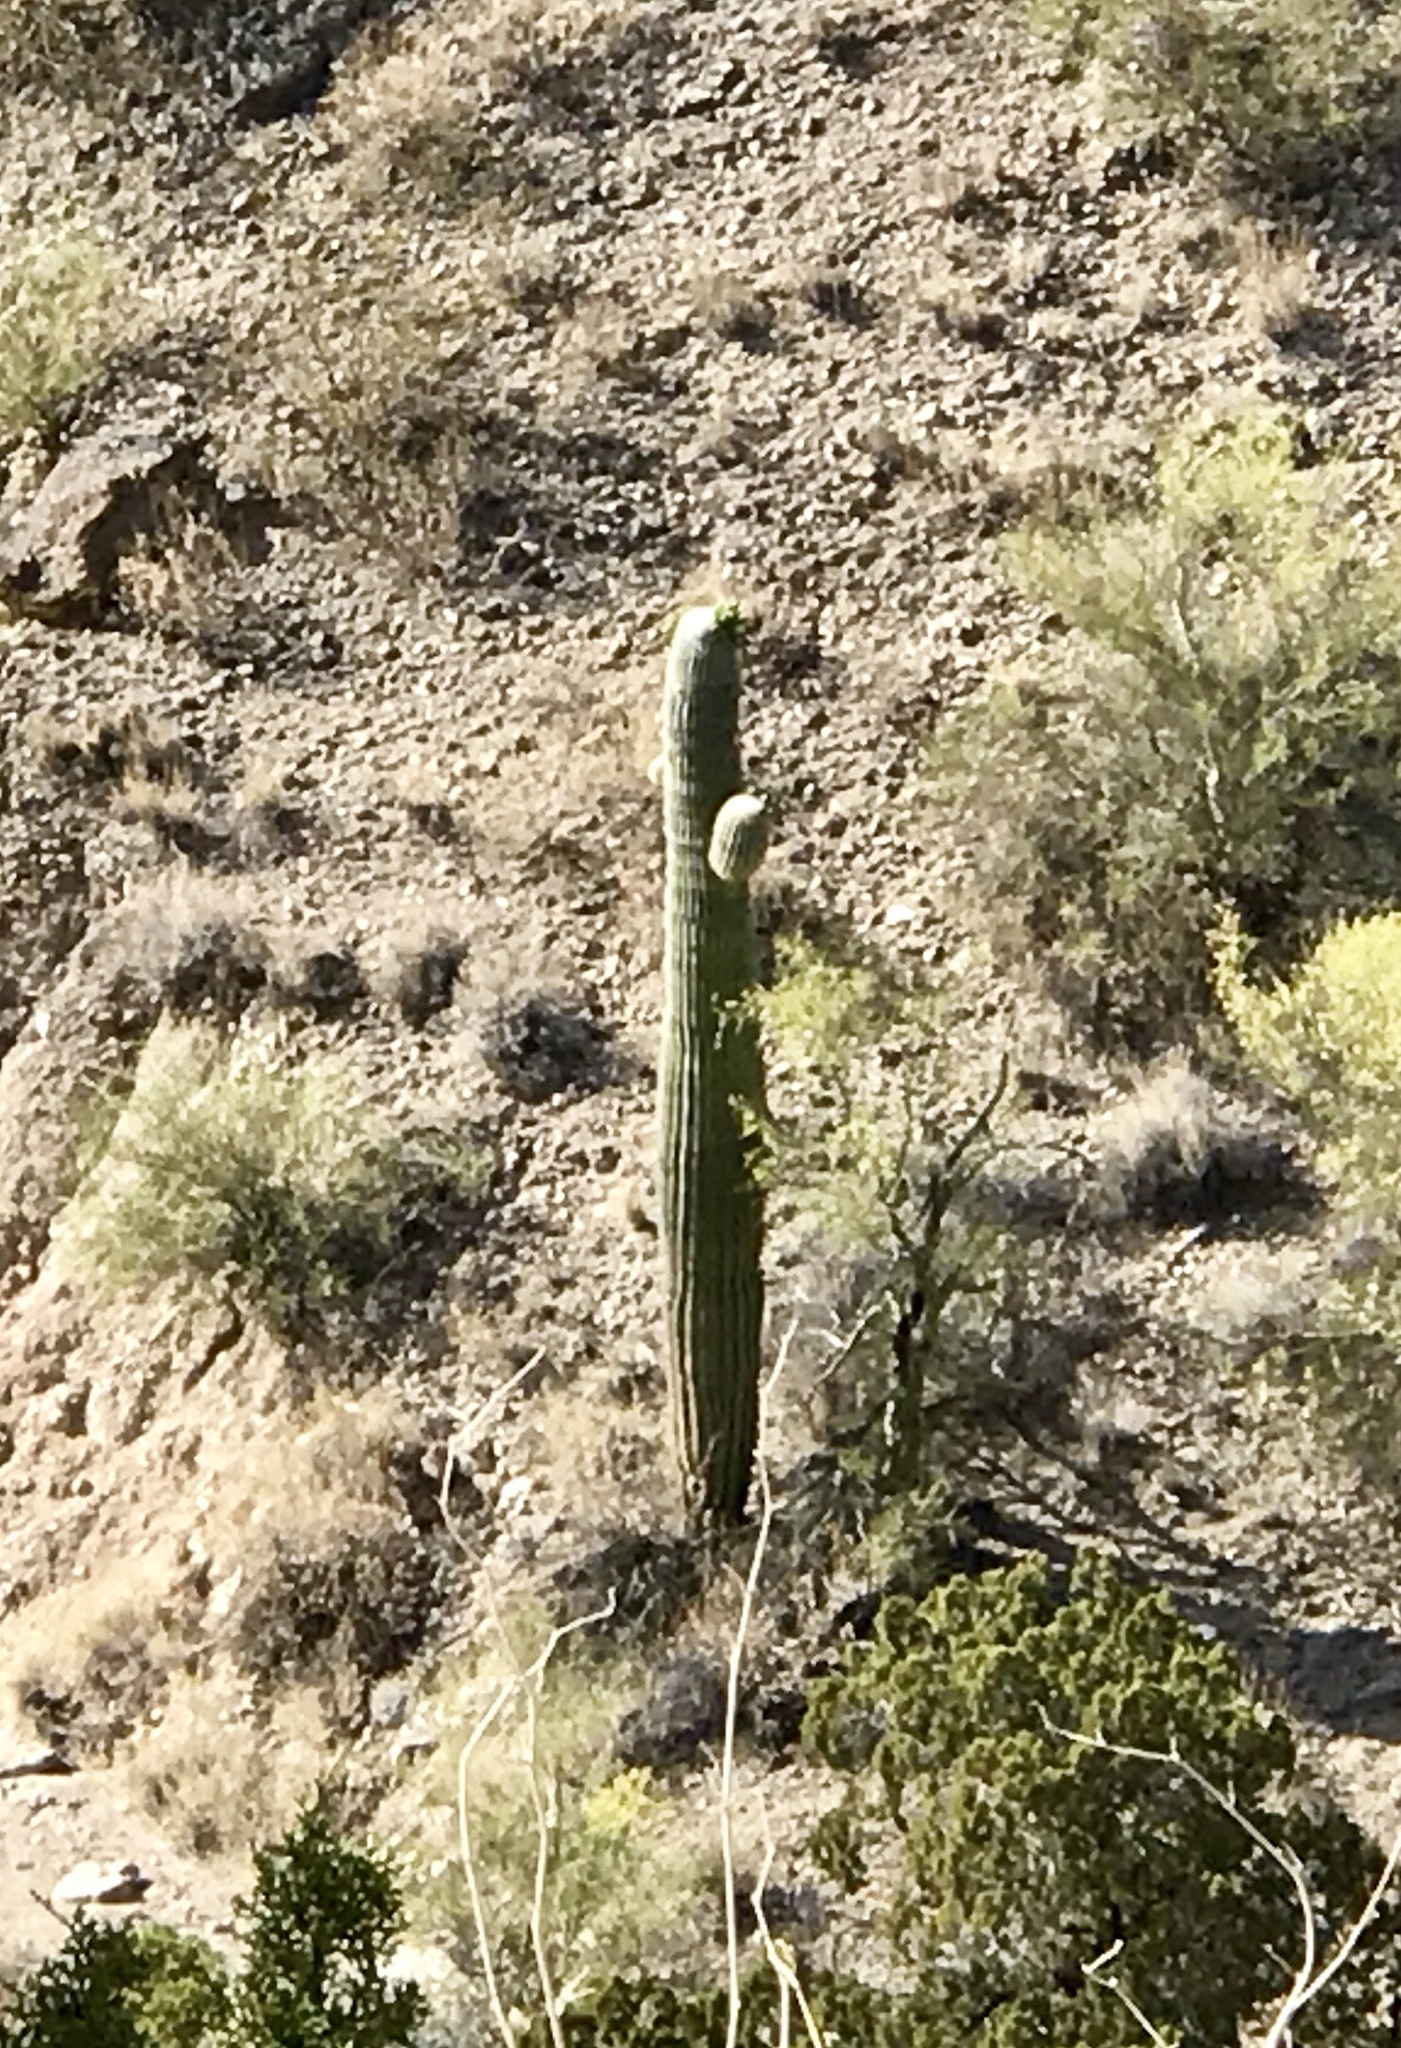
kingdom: Plantae
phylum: Tracheophyta
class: Magnoliopsida
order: Caryophyllales
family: Cactaceae
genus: Carnegiea
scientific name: Carnegiea gigantea
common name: Saguaro
